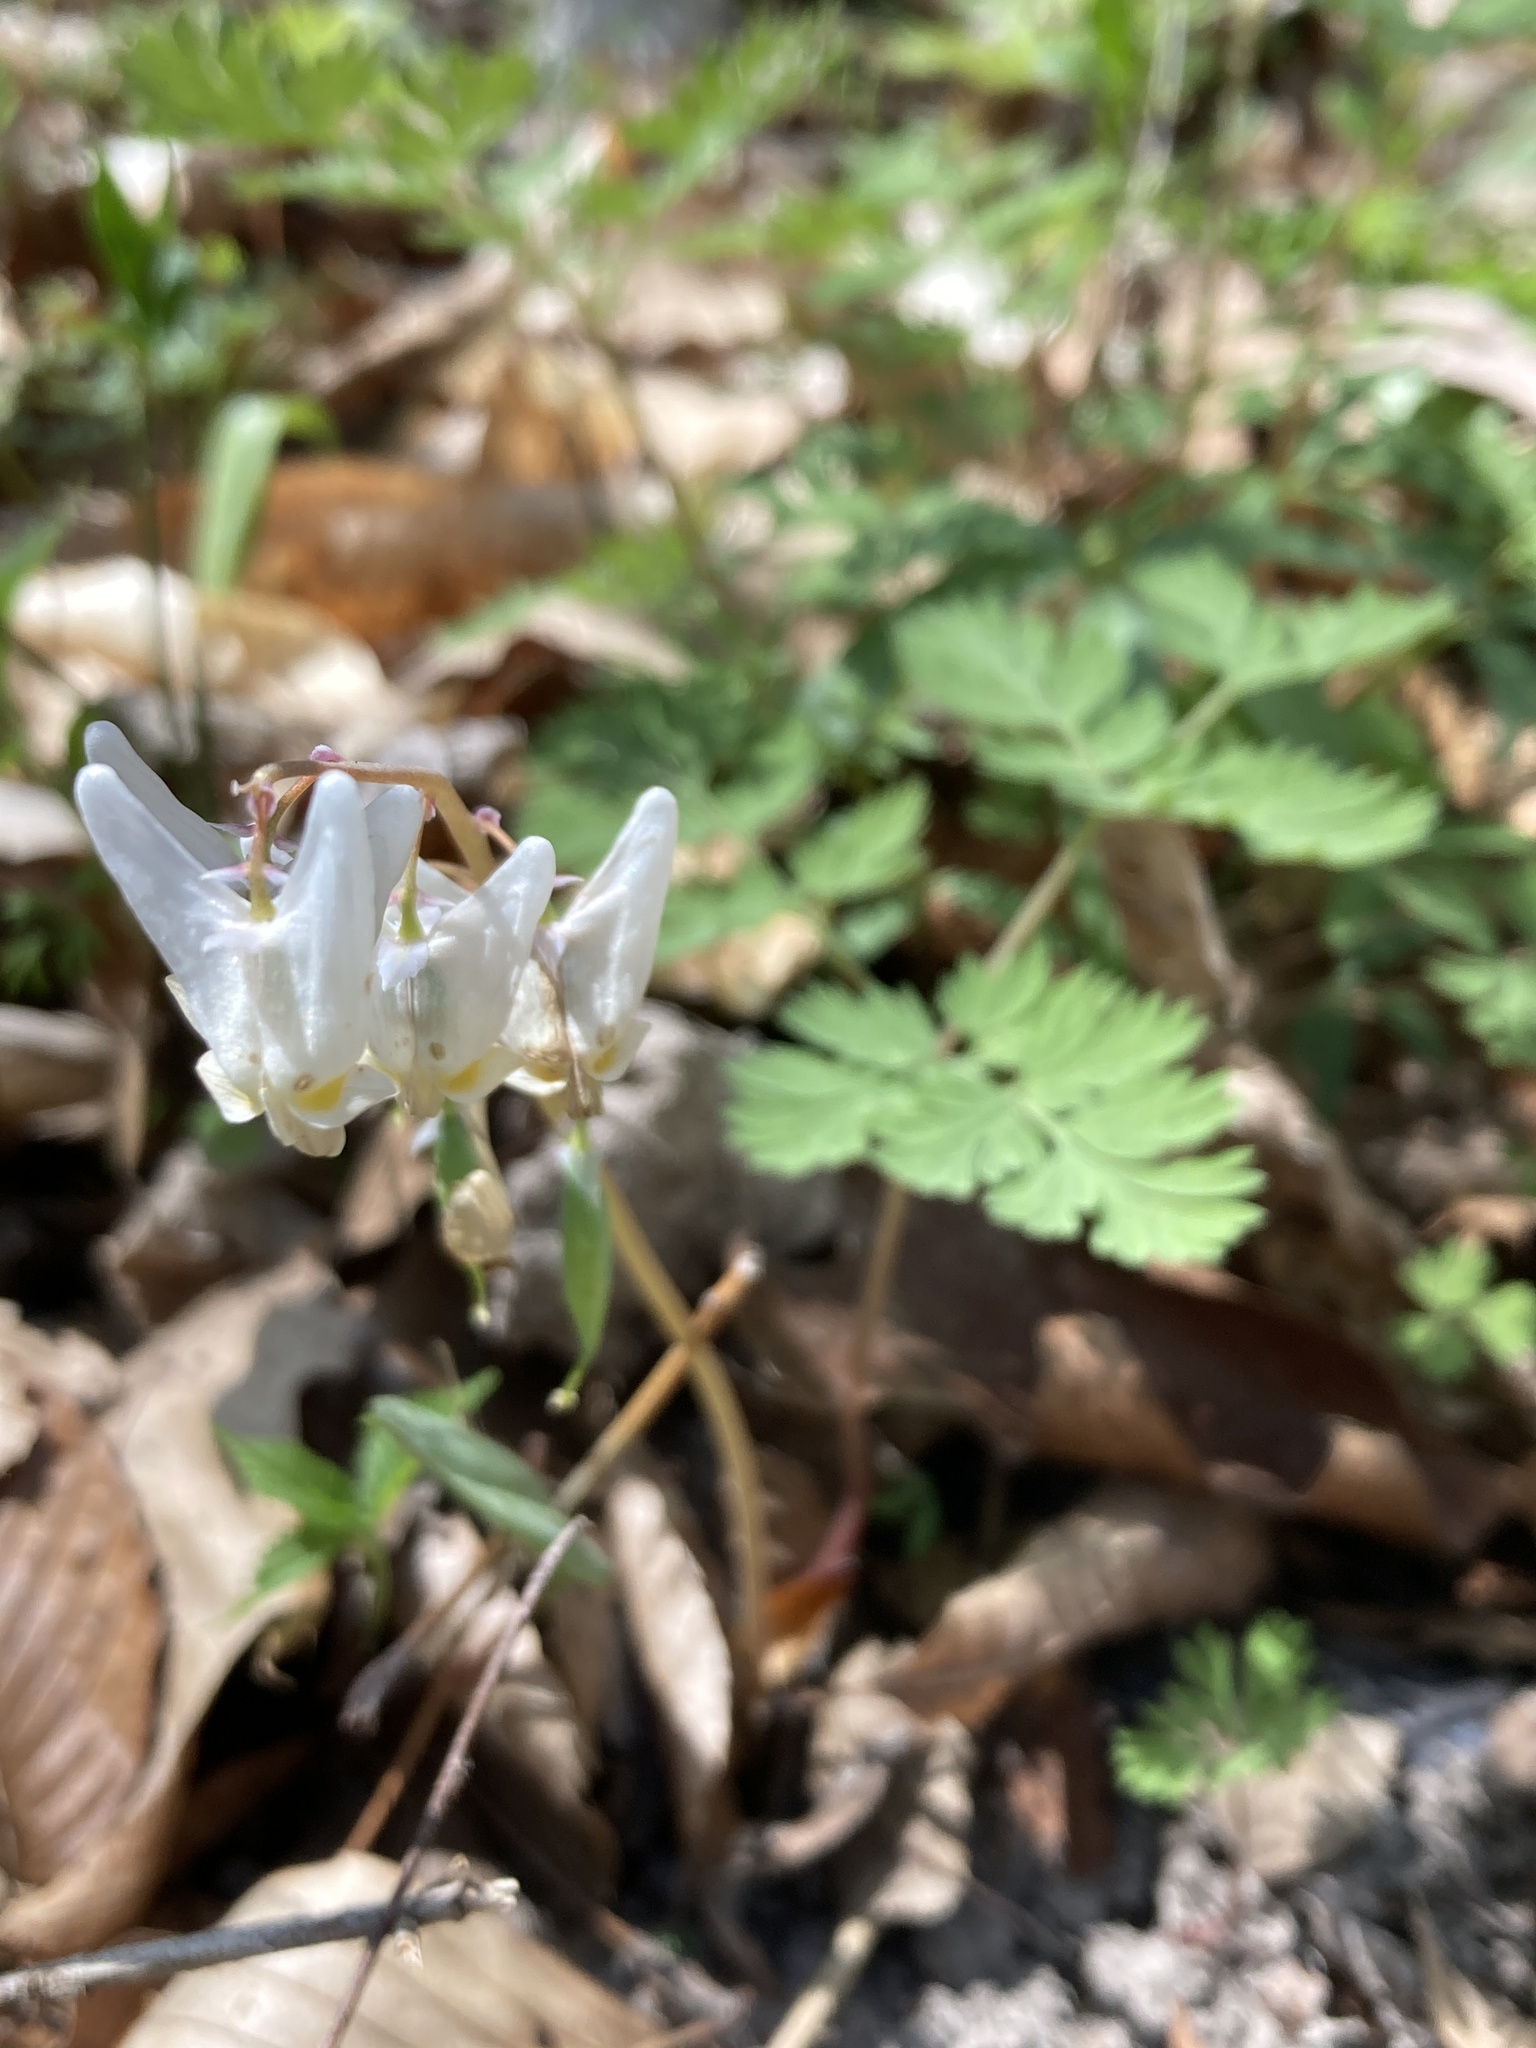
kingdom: Plantae
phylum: Tracheophyta
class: Magnoliopsida
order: Ranunculales
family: Papaveraceae
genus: Dicentra
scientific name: Dicentra cucullaria
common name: Dutchman's breeches
